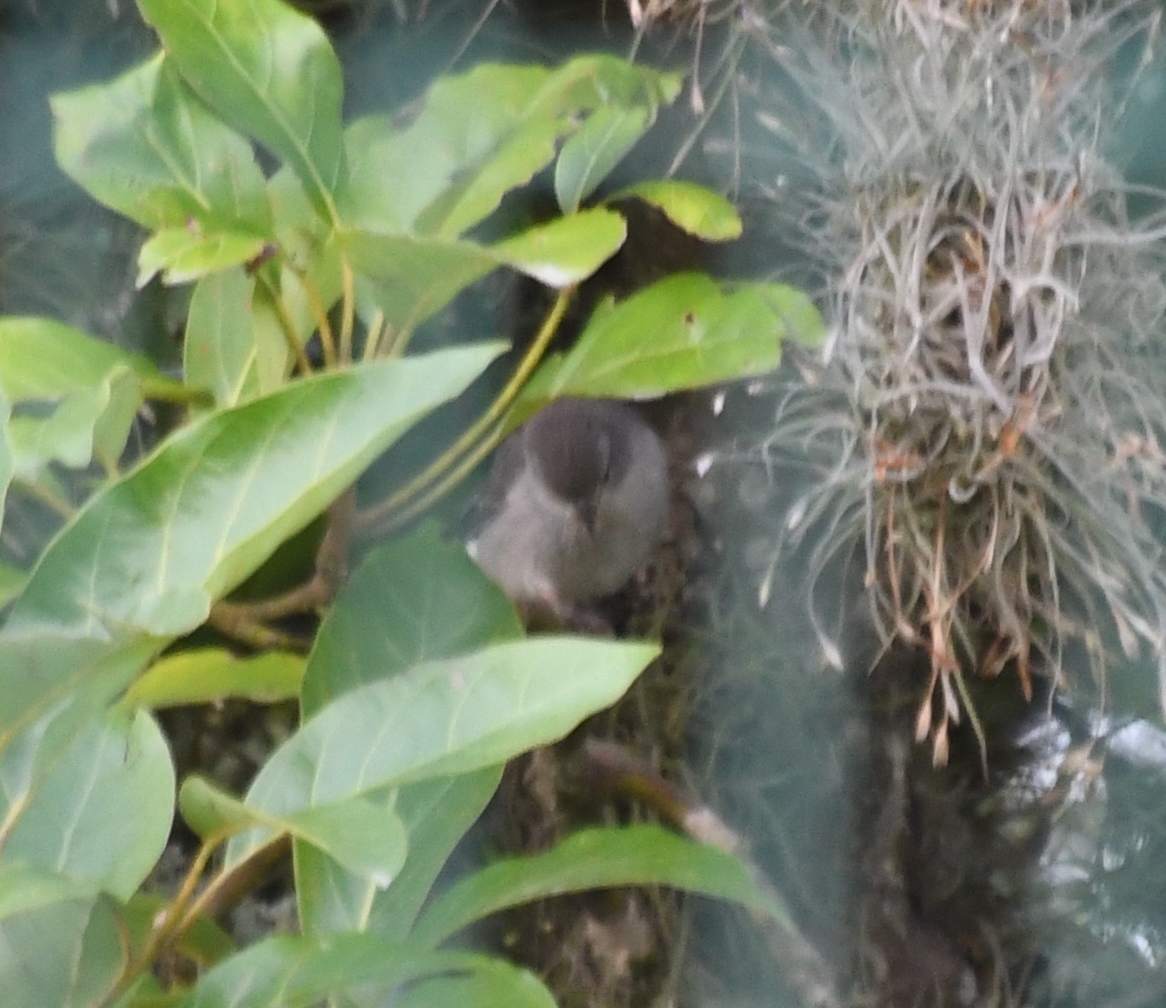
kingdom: Animalia
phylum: Chordata
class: Aves
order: Passeriformes
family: Thraupidae
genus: Geospizopsis
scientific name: Geospizopsis plebejus
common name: Ash-breasted sierra-finch
